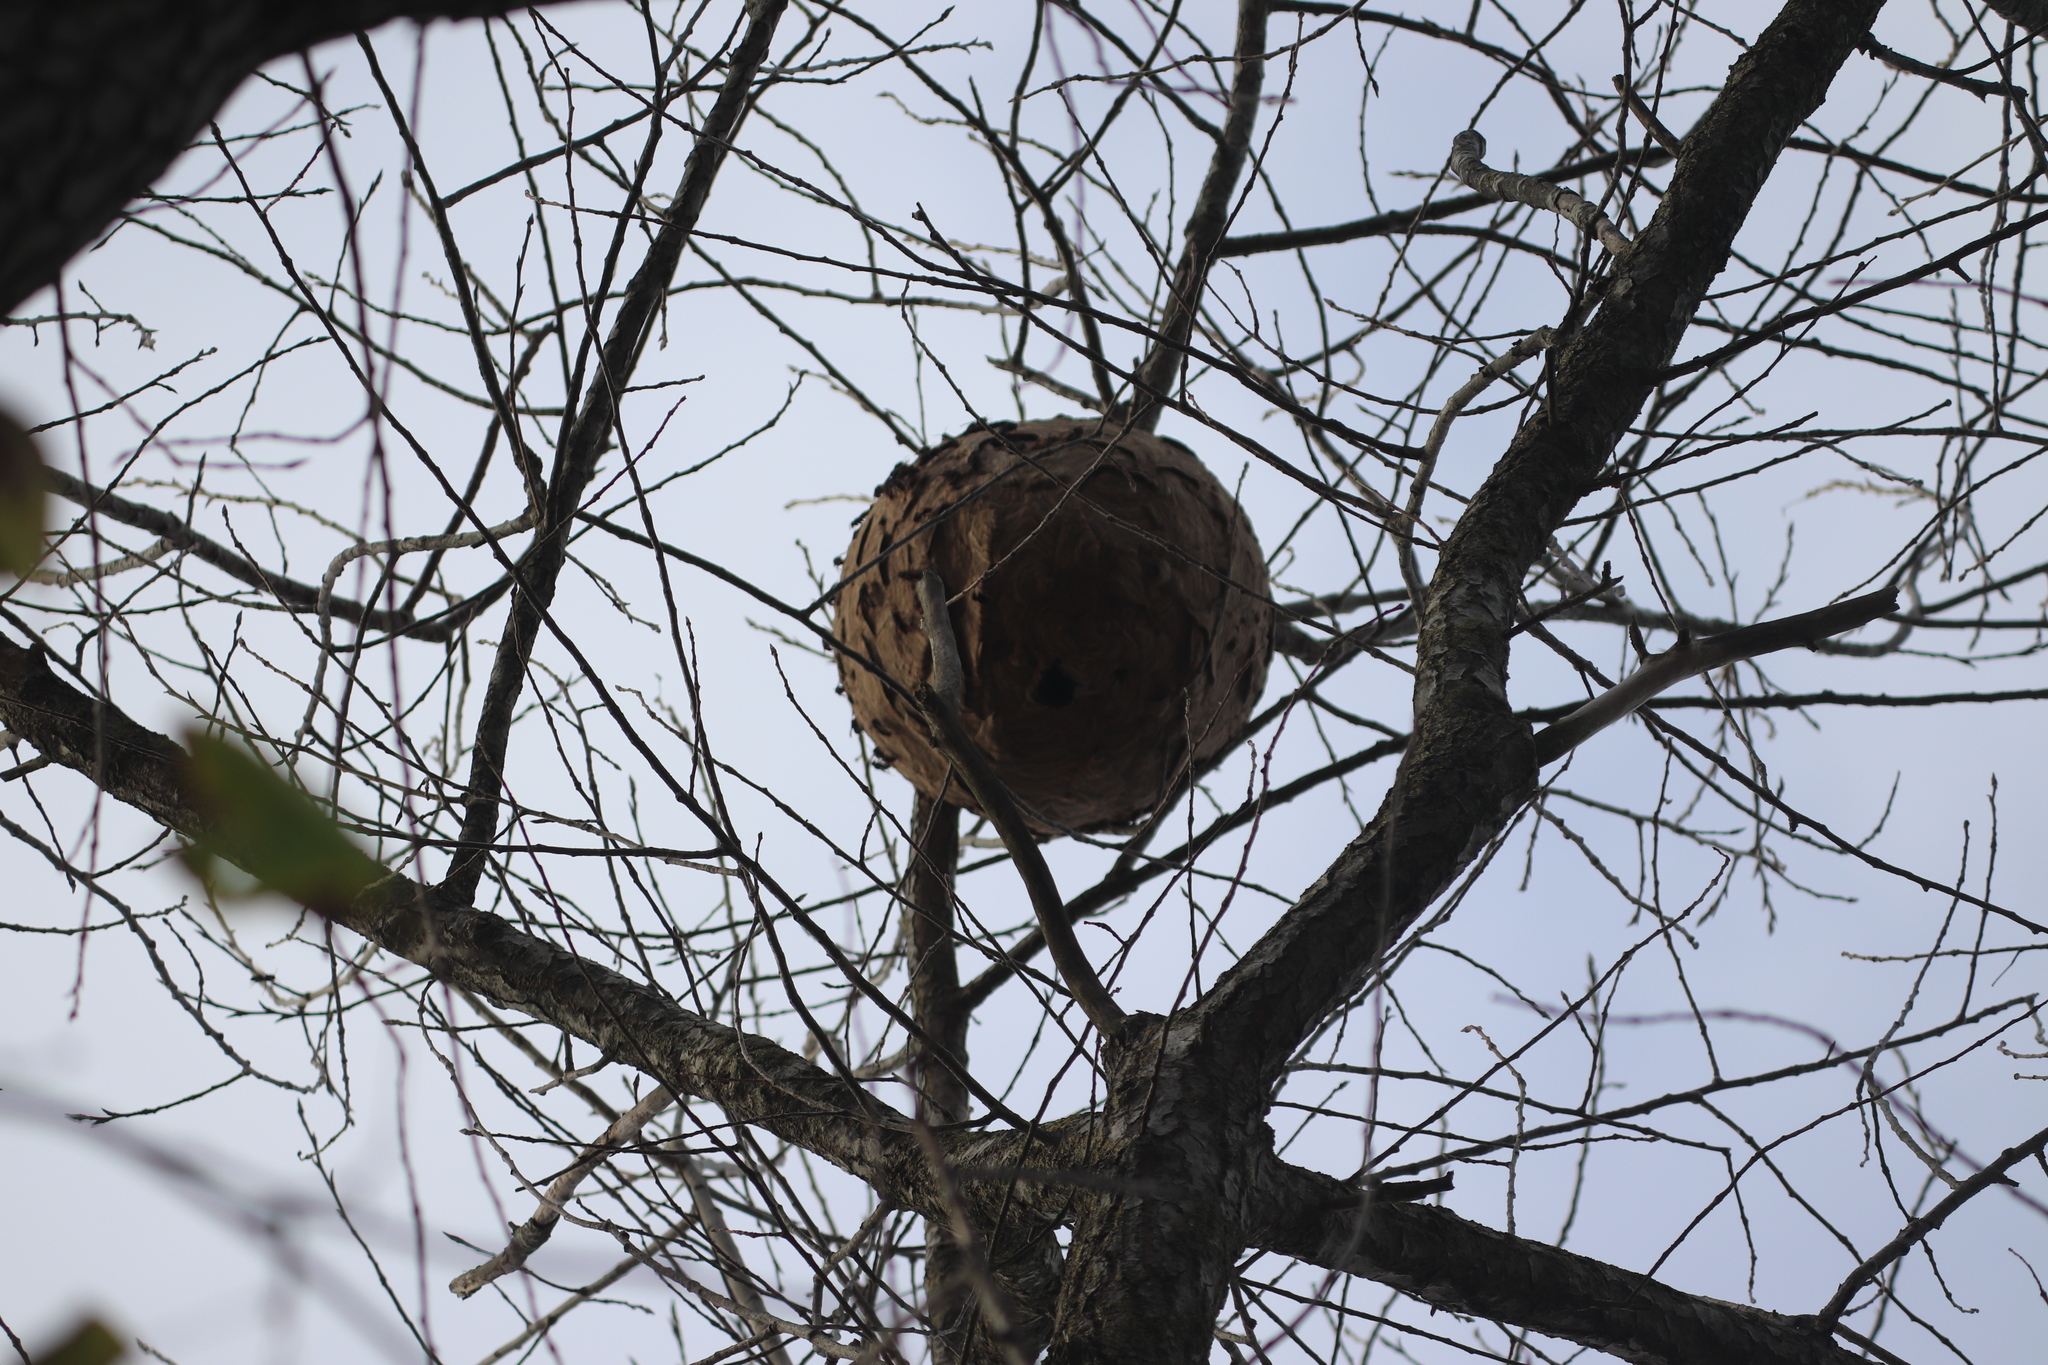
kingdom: Animalia
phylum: Arthropoda
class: Insecta
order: Hymenoptera
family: Vespidae
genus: Vespa
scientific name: Vespa velutina
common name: Asian hornet
